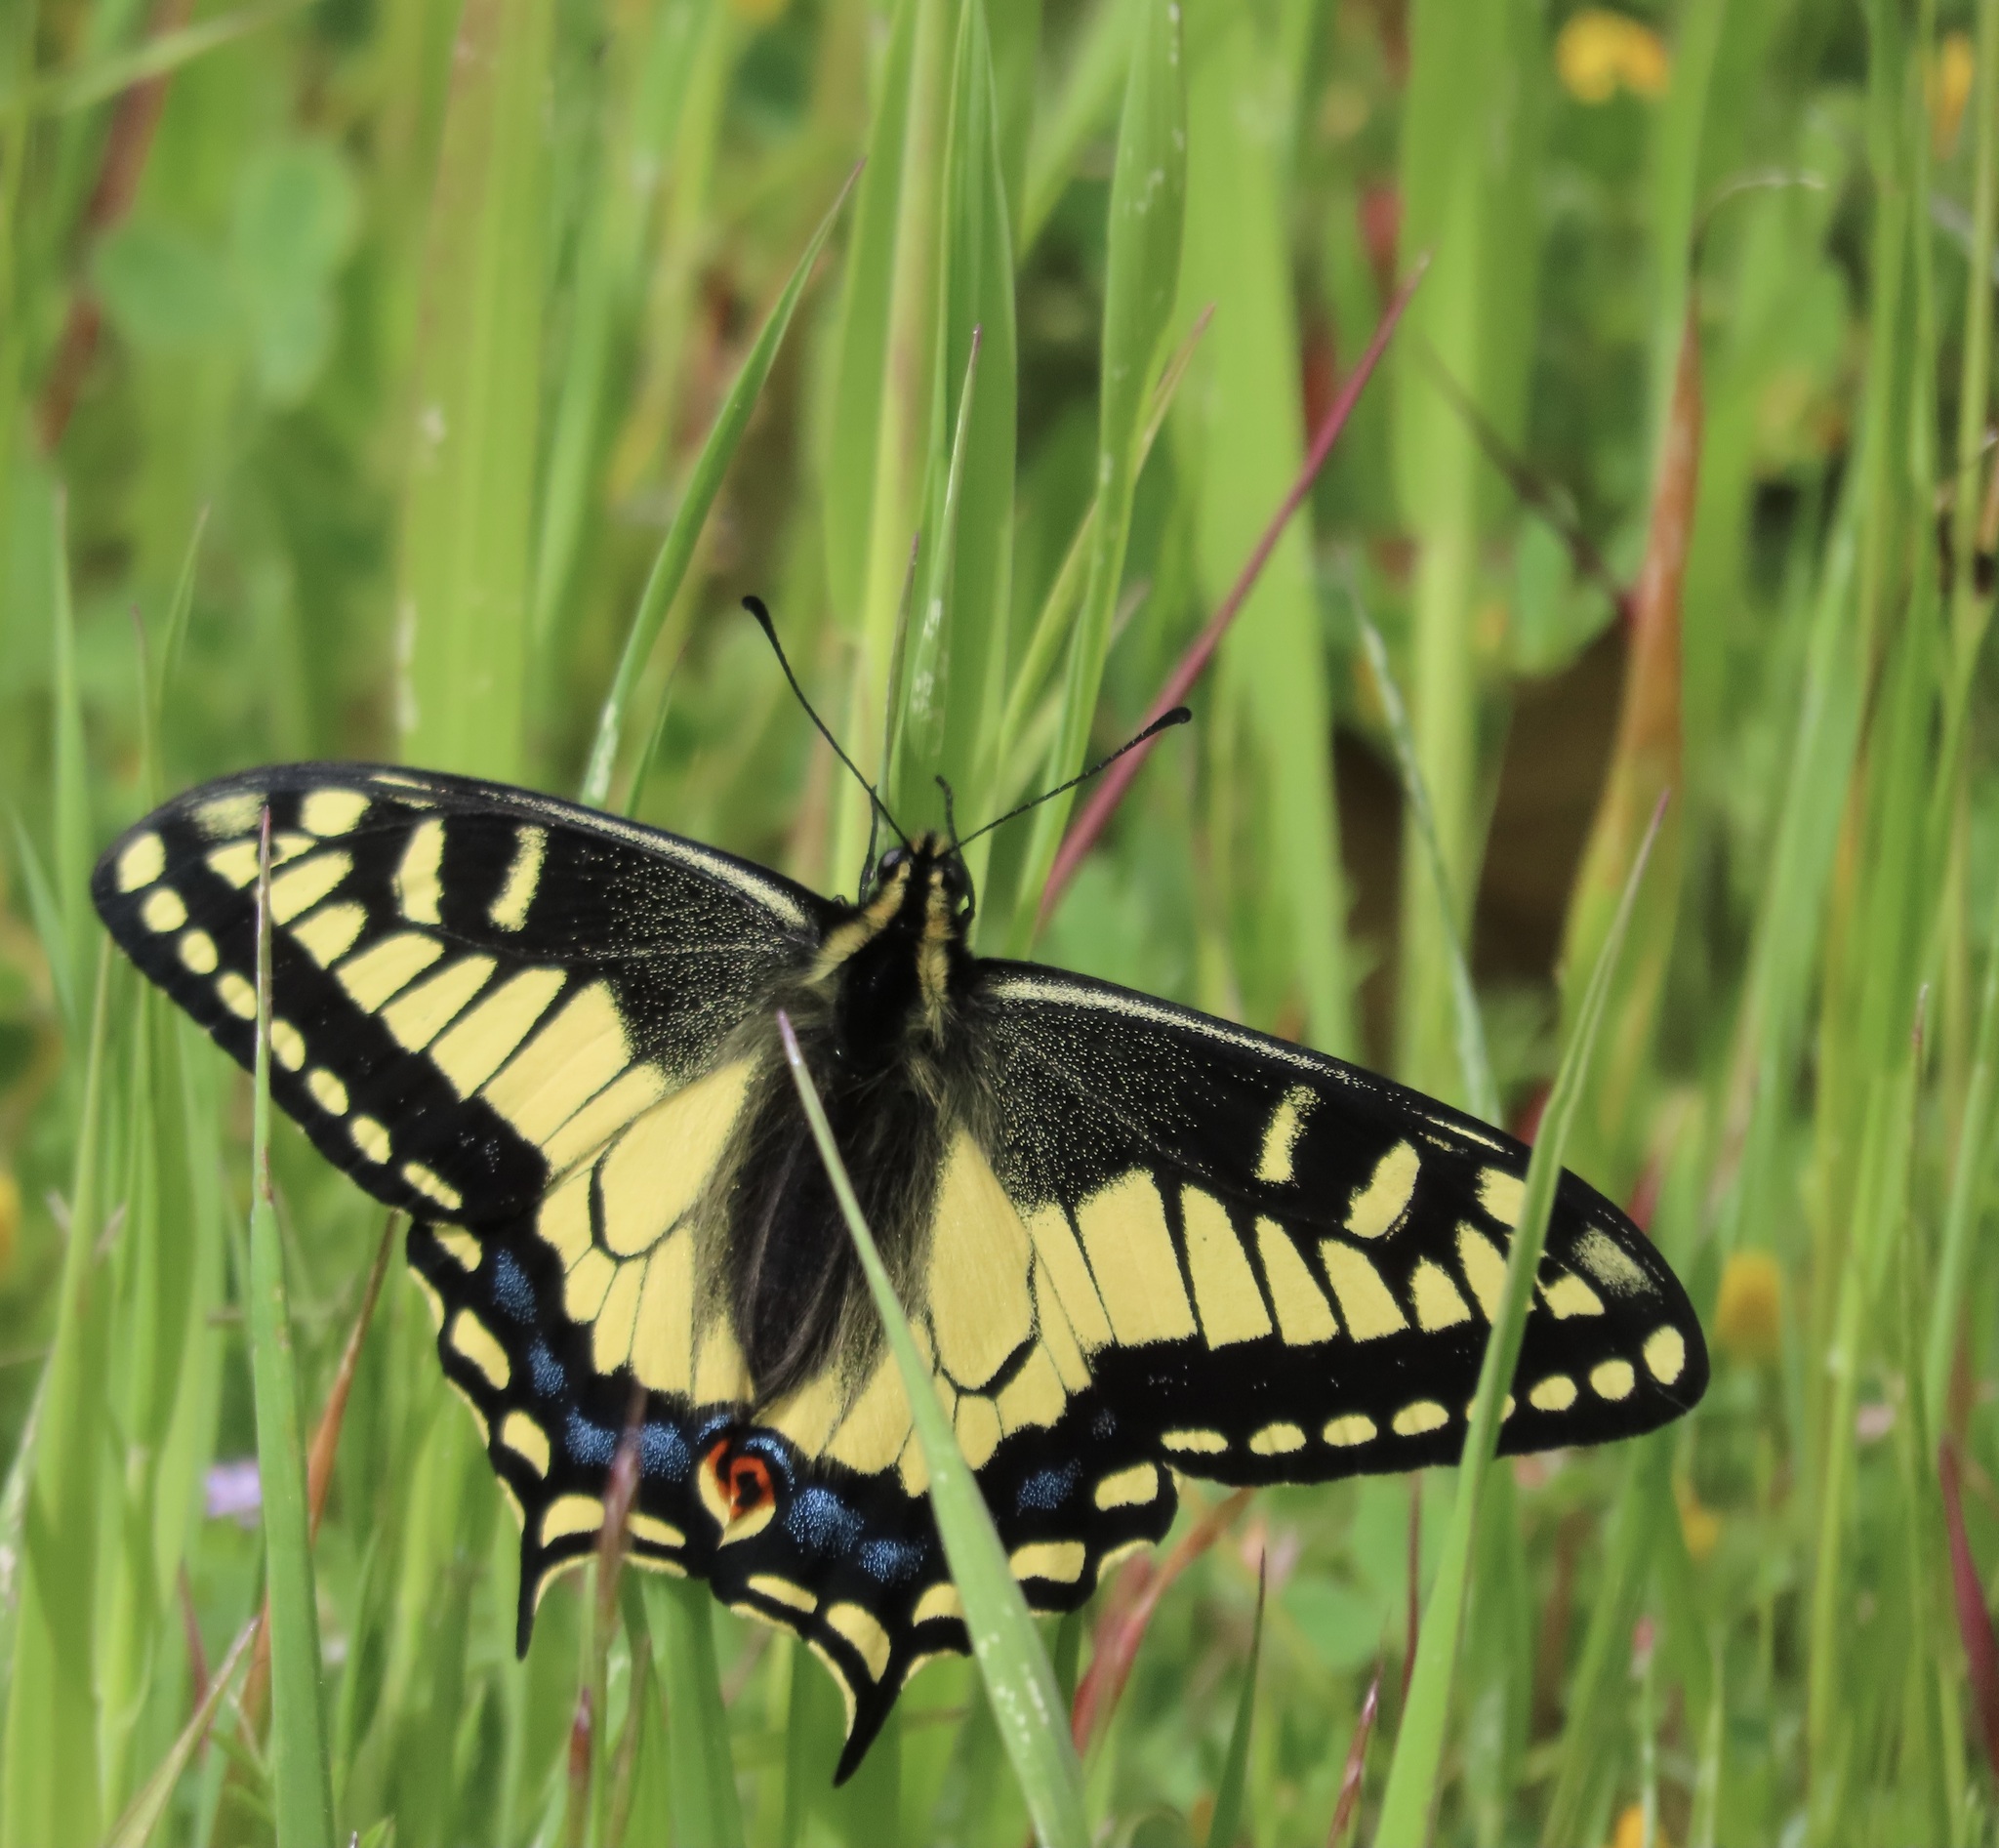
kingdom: Animalia
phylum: Arthropoda
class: Insecta
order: Lepidoptera
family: Papilionidae
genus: Papilio
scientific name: Papilio zelicaon
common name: Anise swallowtail
